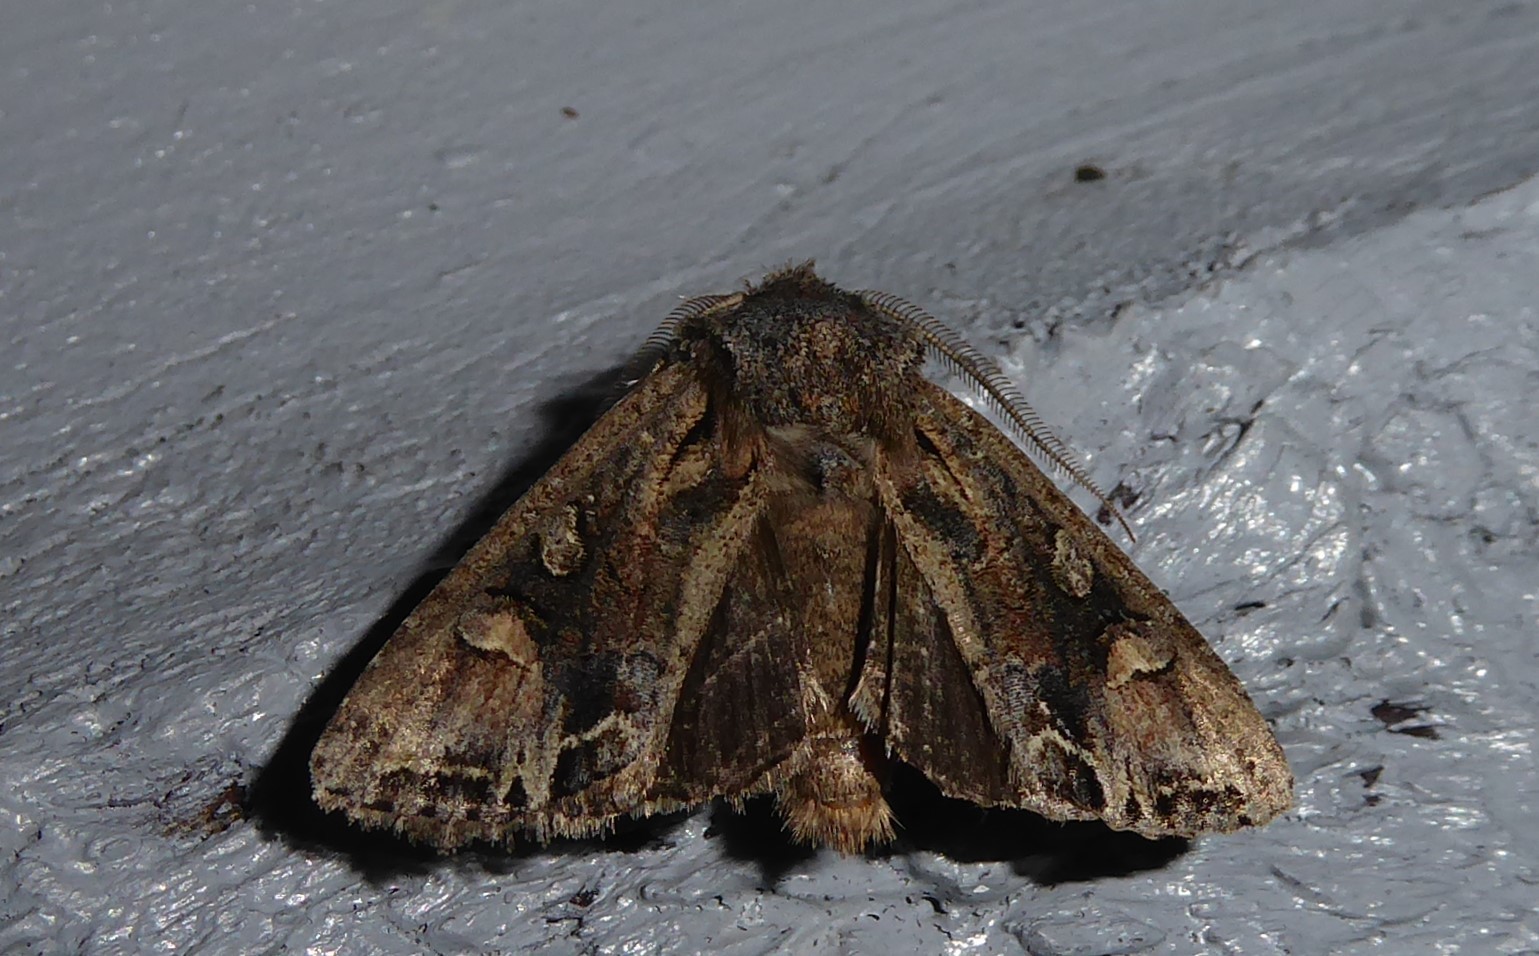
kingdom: Animalia
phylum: Arthropoda
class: Insecta
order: Lepidoptera
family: Noctuidae
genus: Ichneutica
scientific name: Ichneutica skelloni
